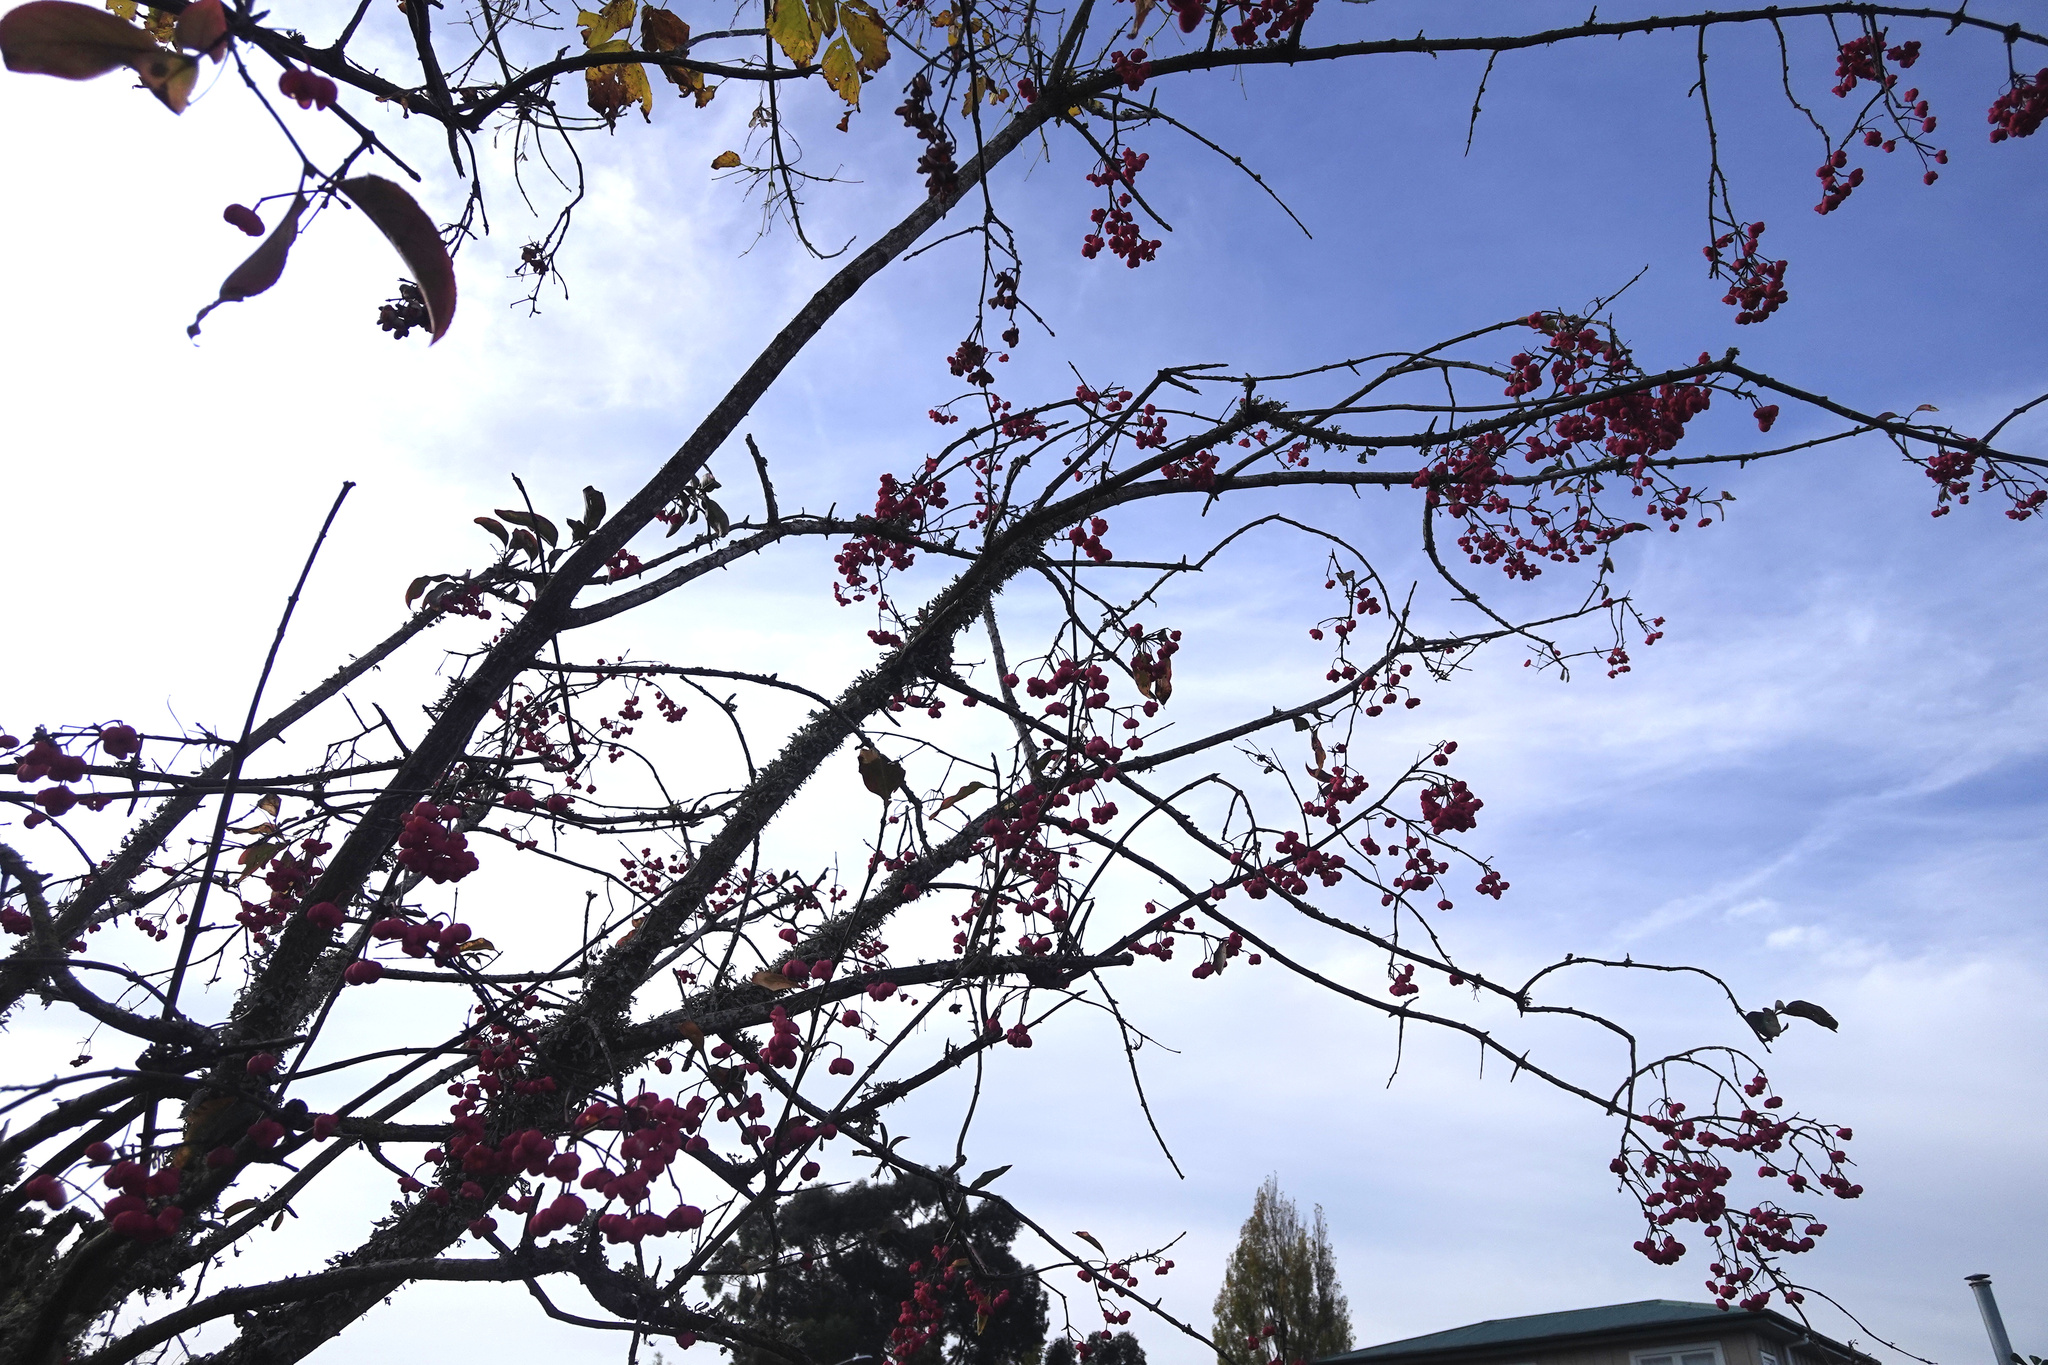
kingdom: Plantae
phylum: Tracheophyta
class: Magnoliopsida
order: Celastrales
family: Celastraceae
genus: Euonymus
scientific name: Euonymus europaeus
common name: Spindle
